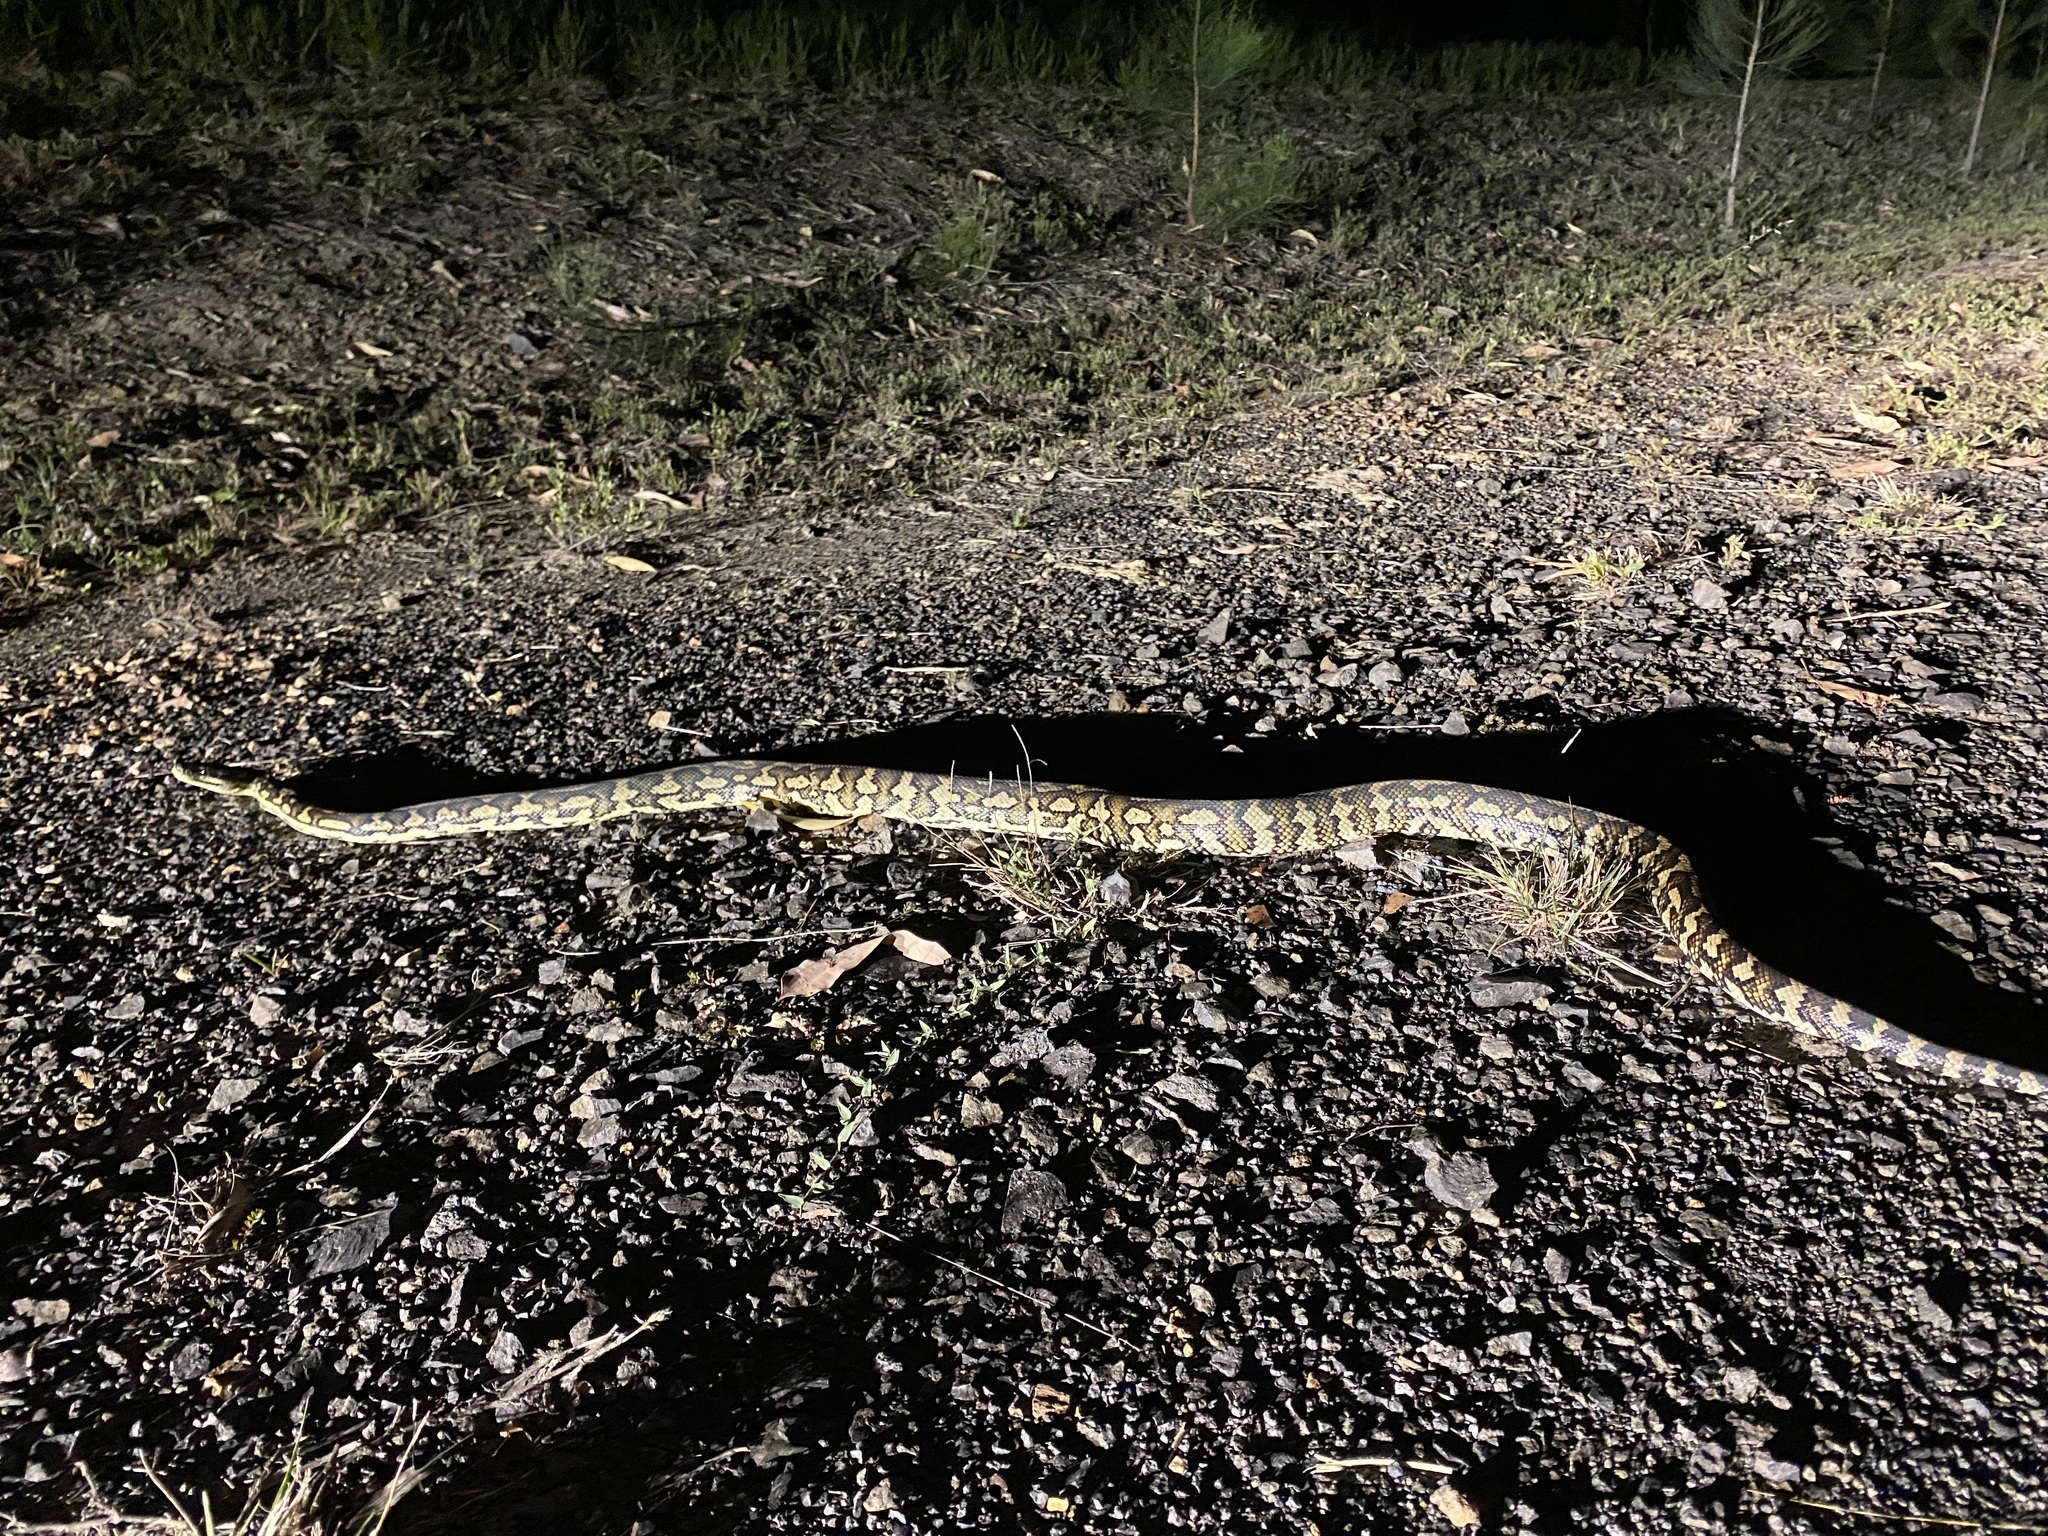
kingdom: Animalia
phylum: Chordata
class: Squamata
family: Pythonidae
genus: Morelia
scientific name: Morelia spilota
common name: Carpet python
